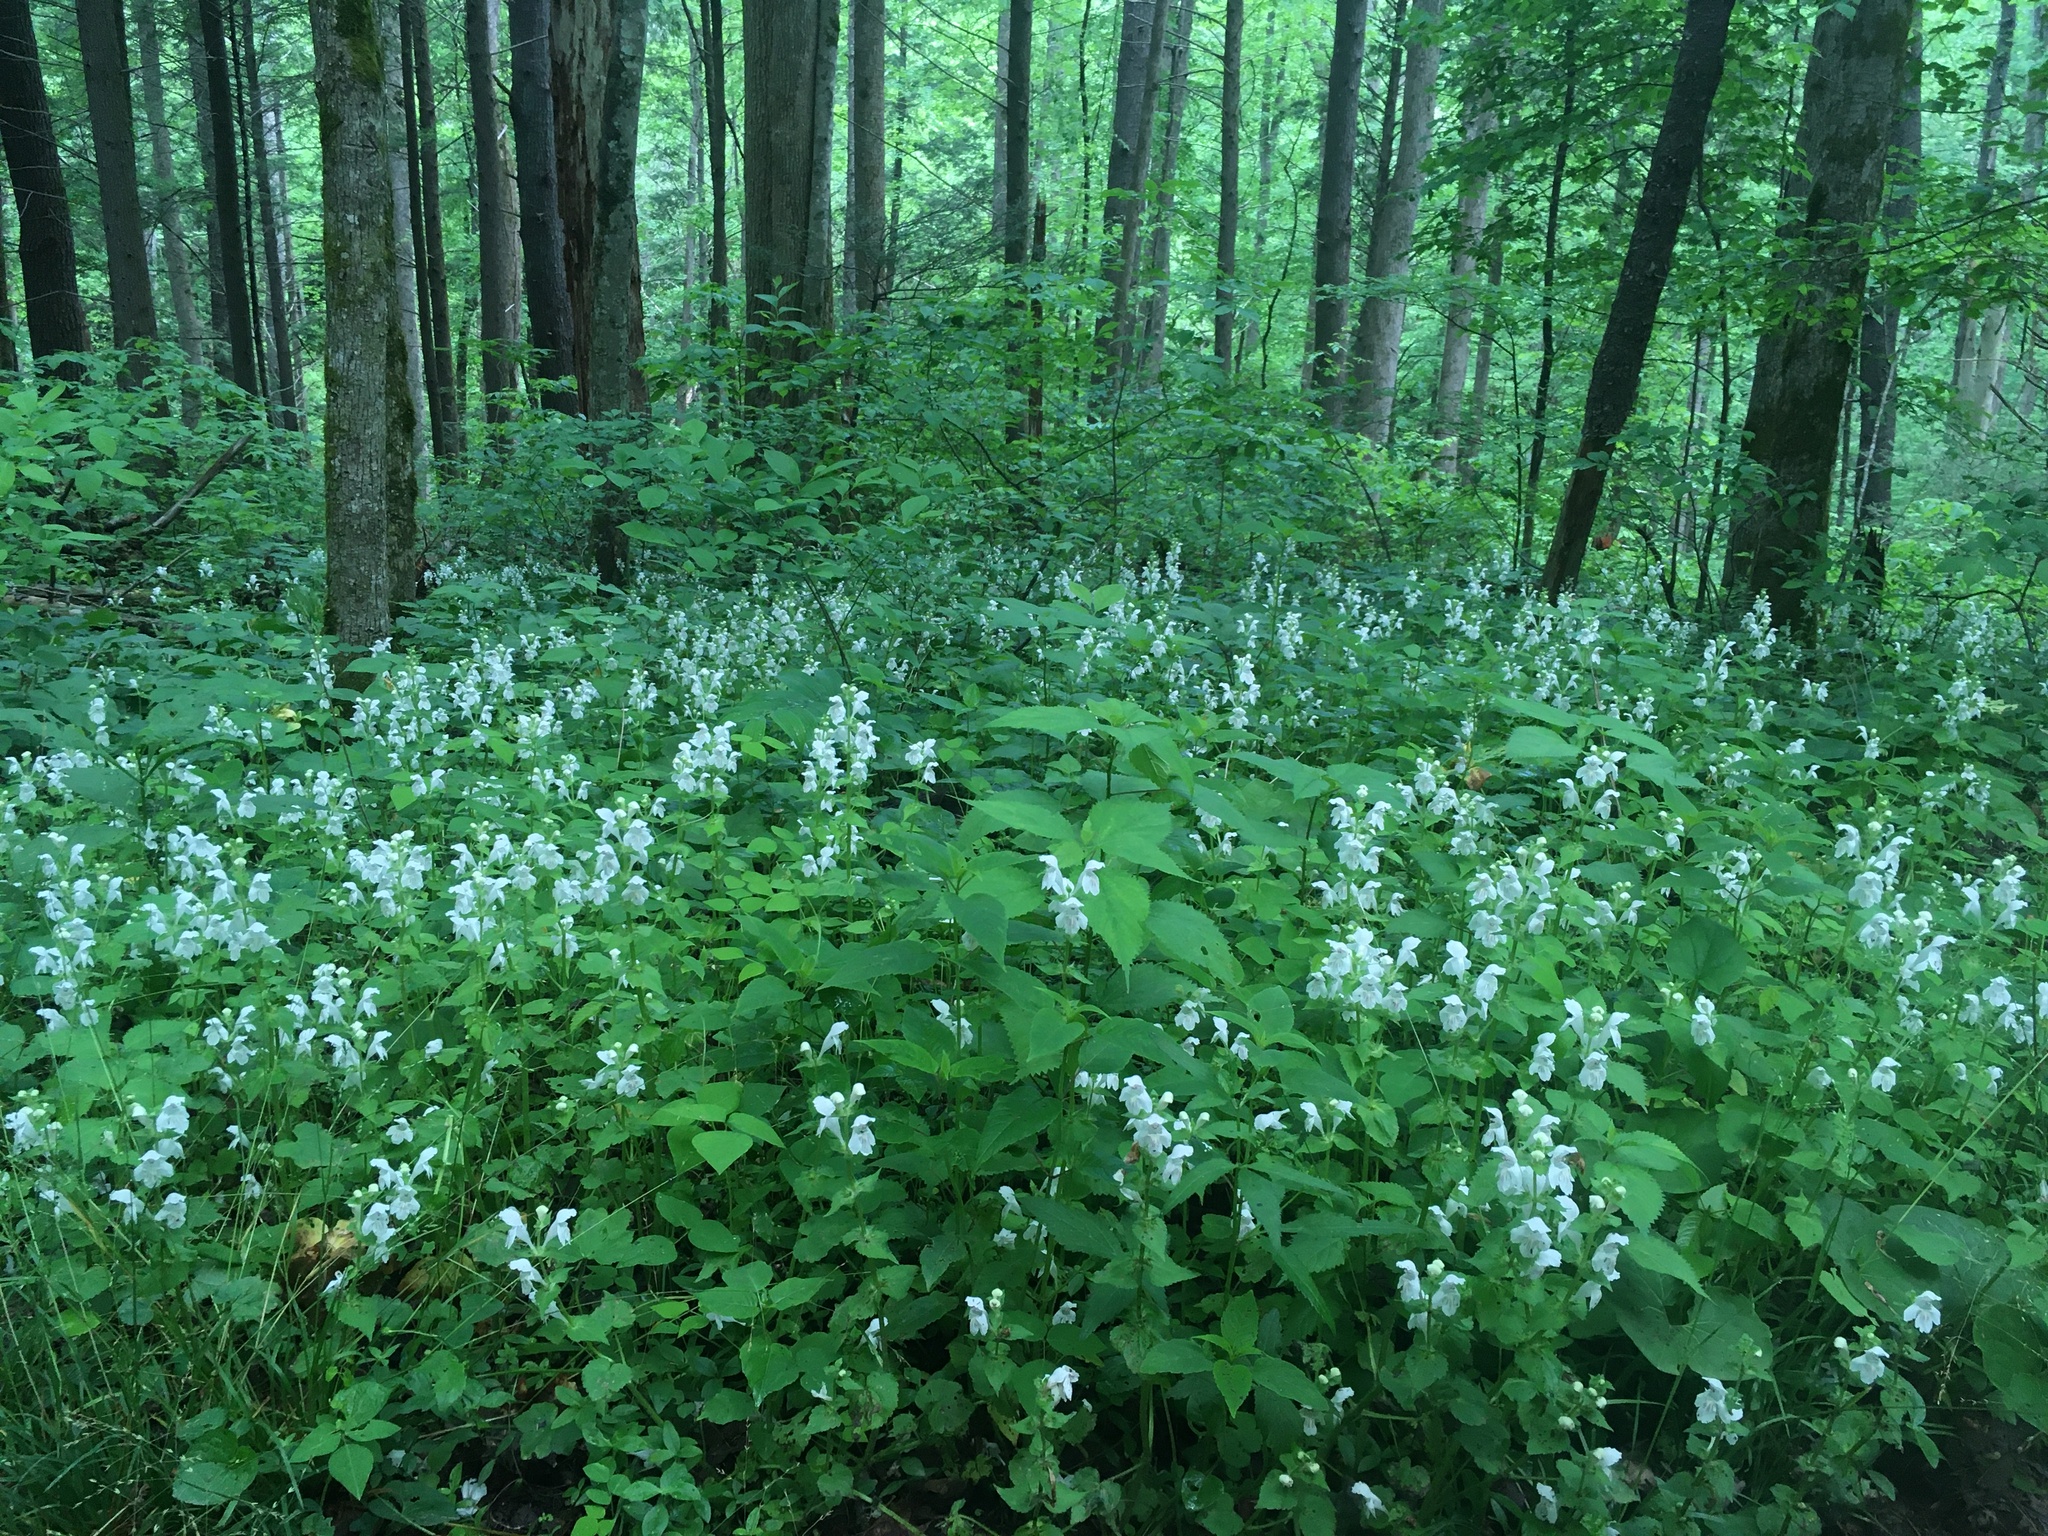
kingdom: Plantae
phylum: Tracheophyta
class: Magnoliopsida
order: Lamiales
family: Lamiaceae
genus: Synandra
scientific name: Synandra hispidula
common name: Synandra
